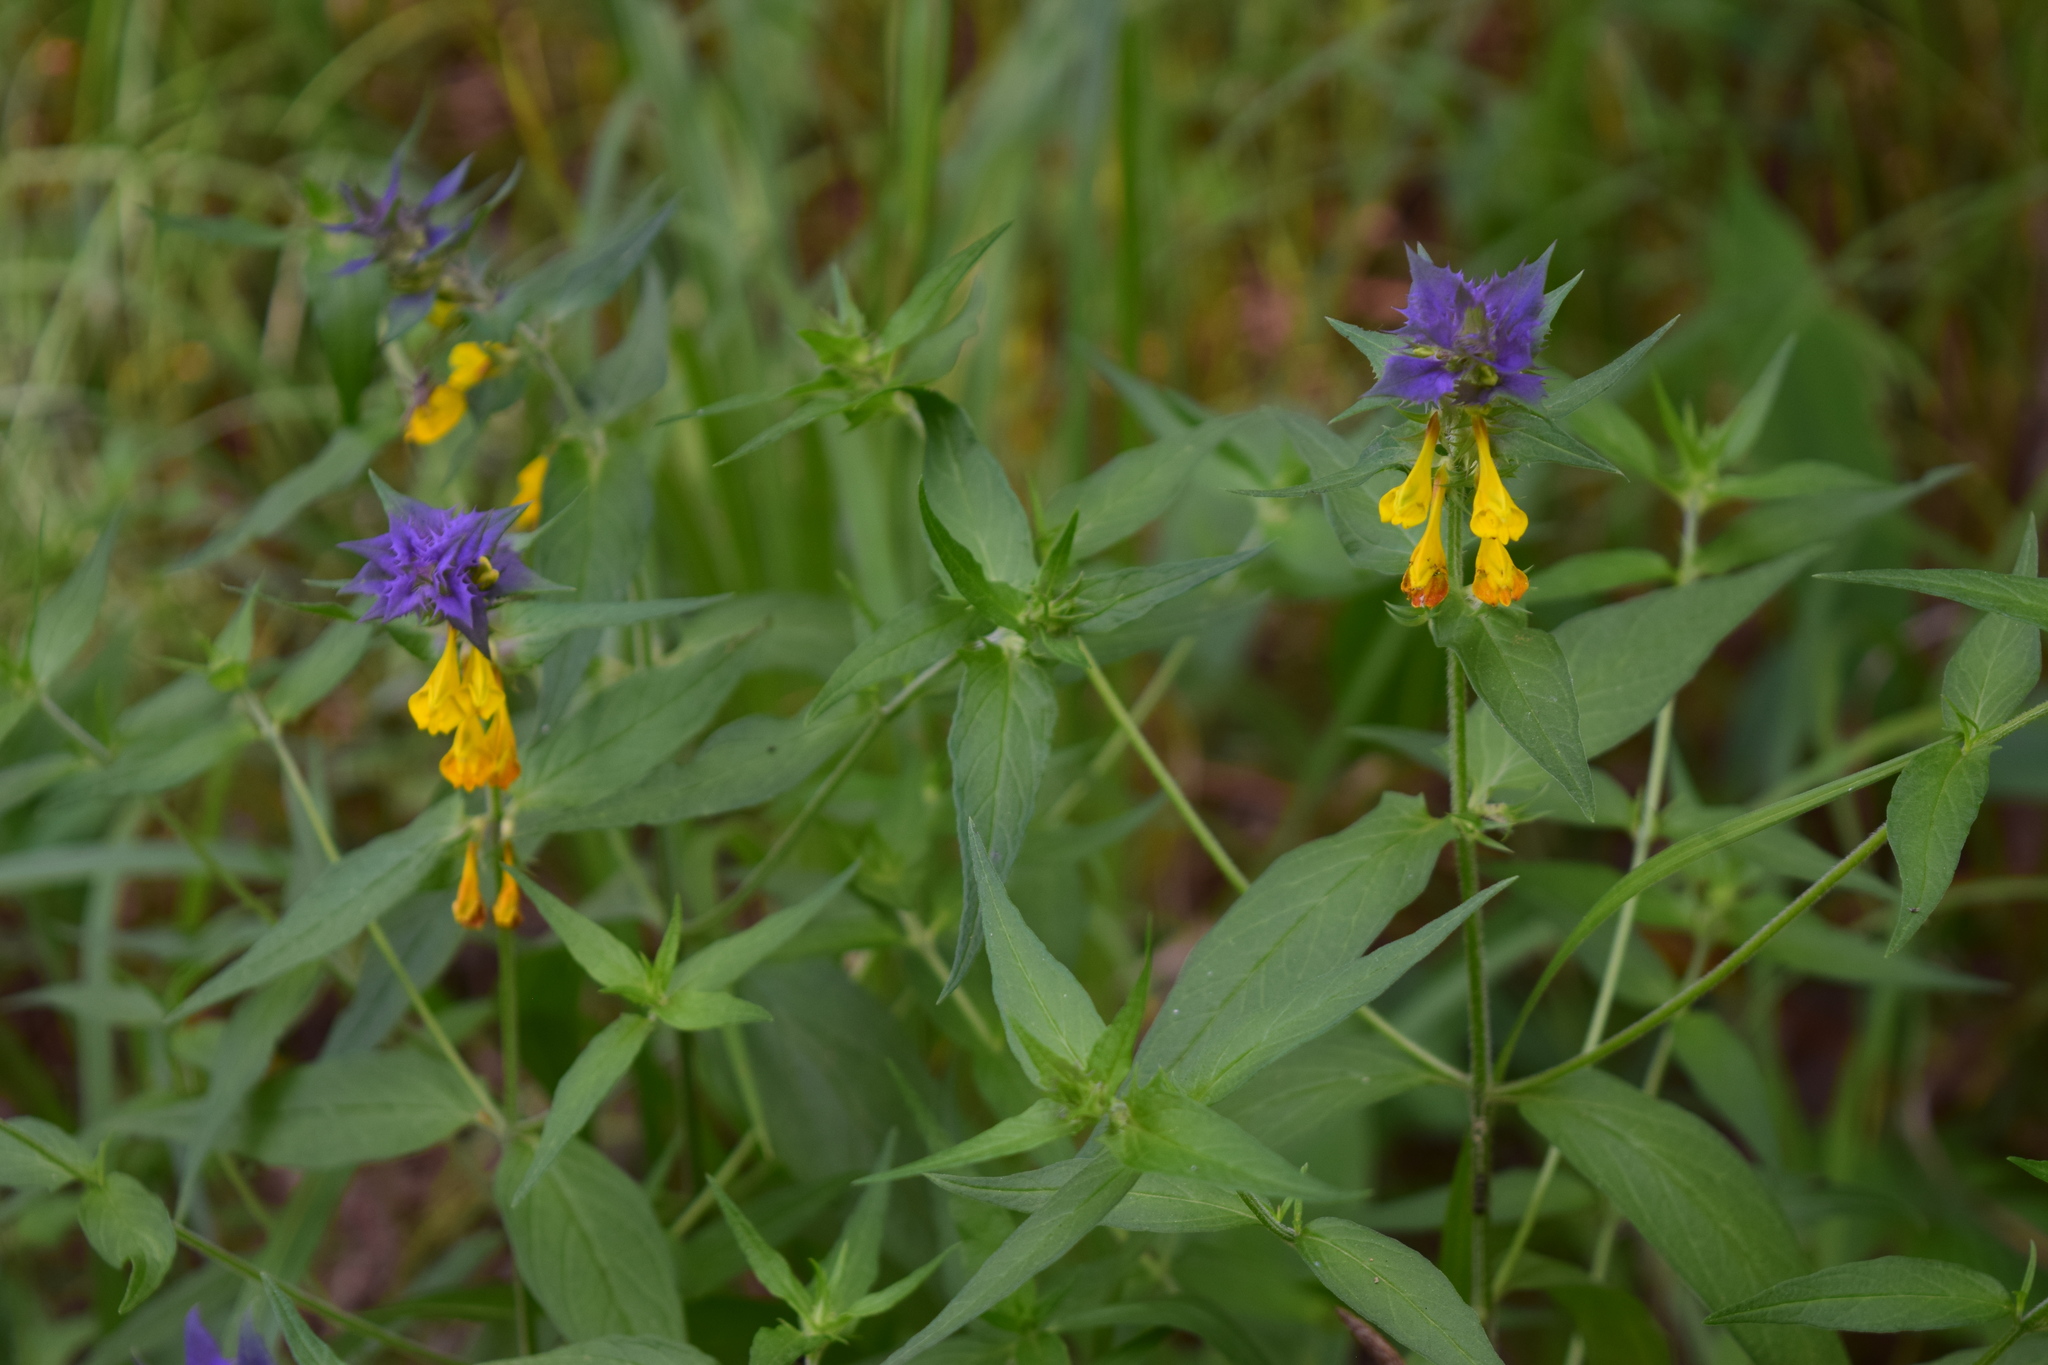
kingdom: Plantae
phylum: Tracheophyta
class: Magnoliopsida
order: Lamiales
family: Orobanchaceae
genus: Melampyrum
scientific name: Melampyrum nemorosum
